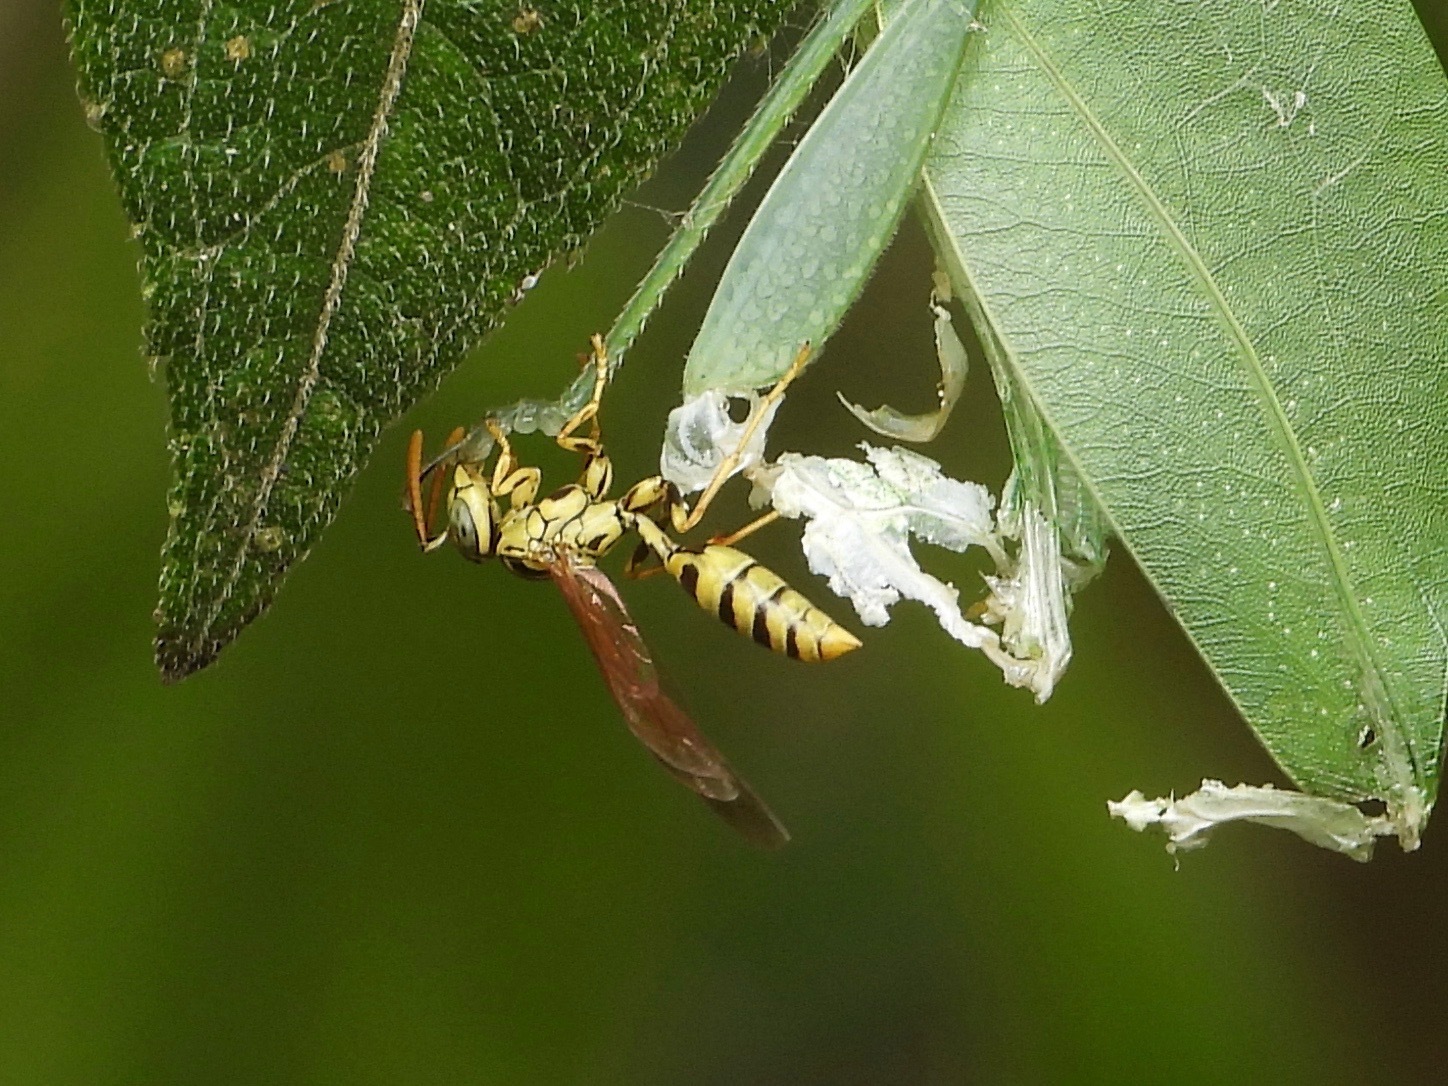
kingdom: Animalia
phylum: Arthropoda
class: Insecta
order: Hymenoptera
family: Vespidae
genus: Agelaia
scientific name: Agelaia areata
